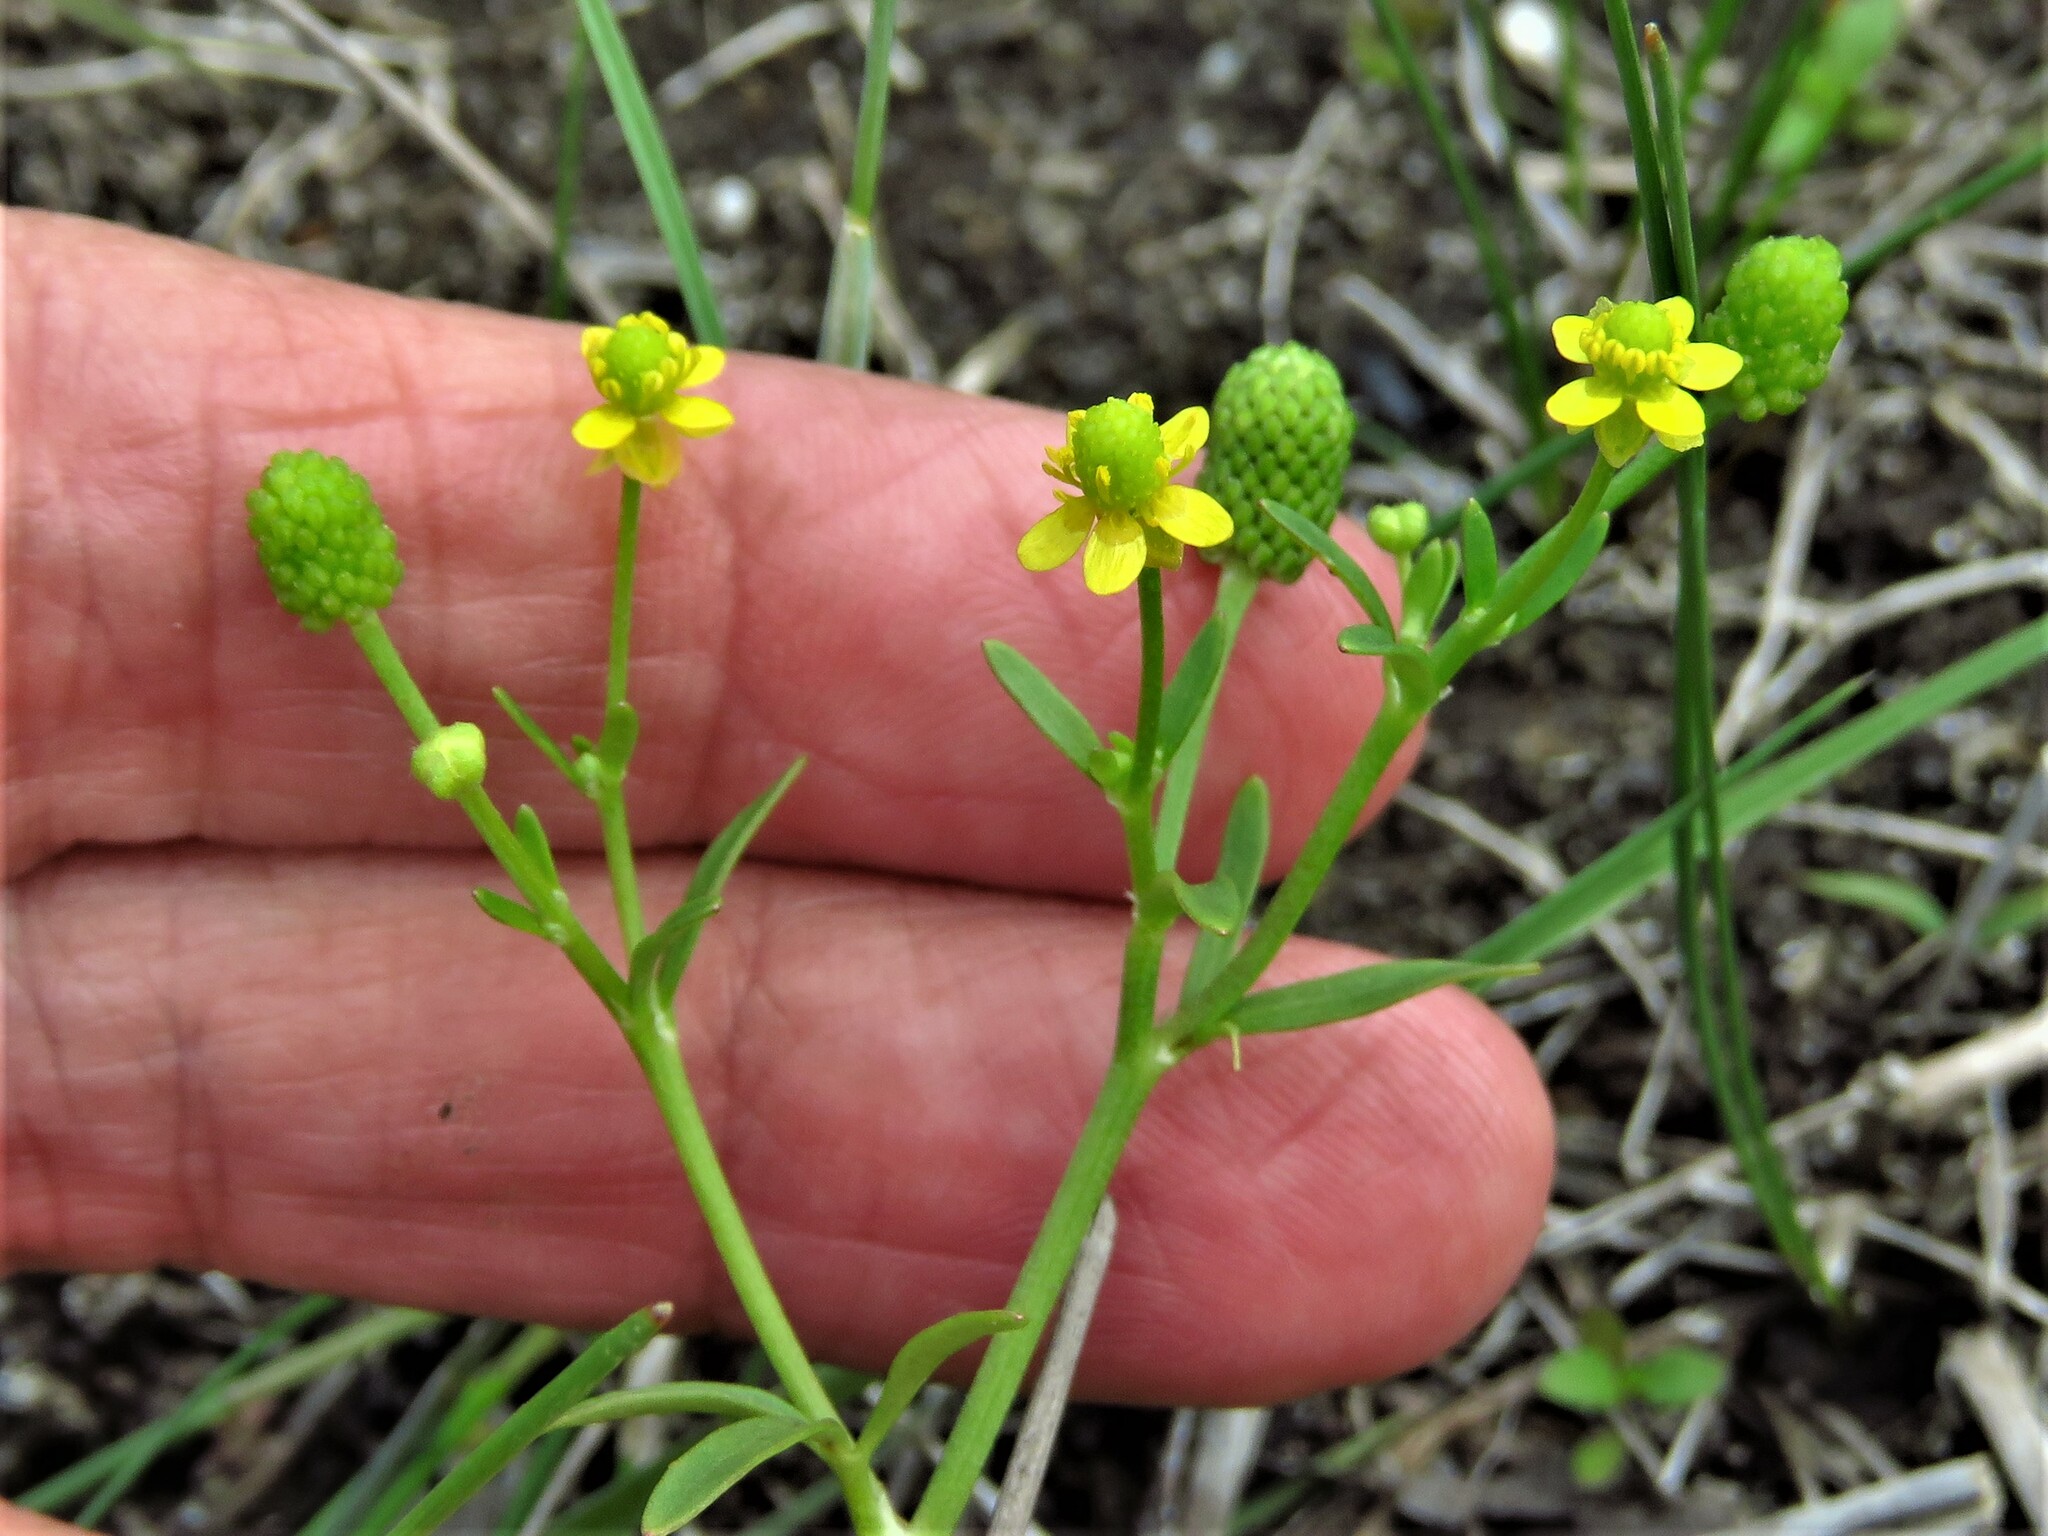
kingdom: Plantae
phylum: Tracheophyta
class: Magnoliopsida
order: Ranunculales
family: Ranunculaceae
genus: Ranunculus
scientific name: Ranunculus sceleratus
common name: Celery-leaved buttercup
